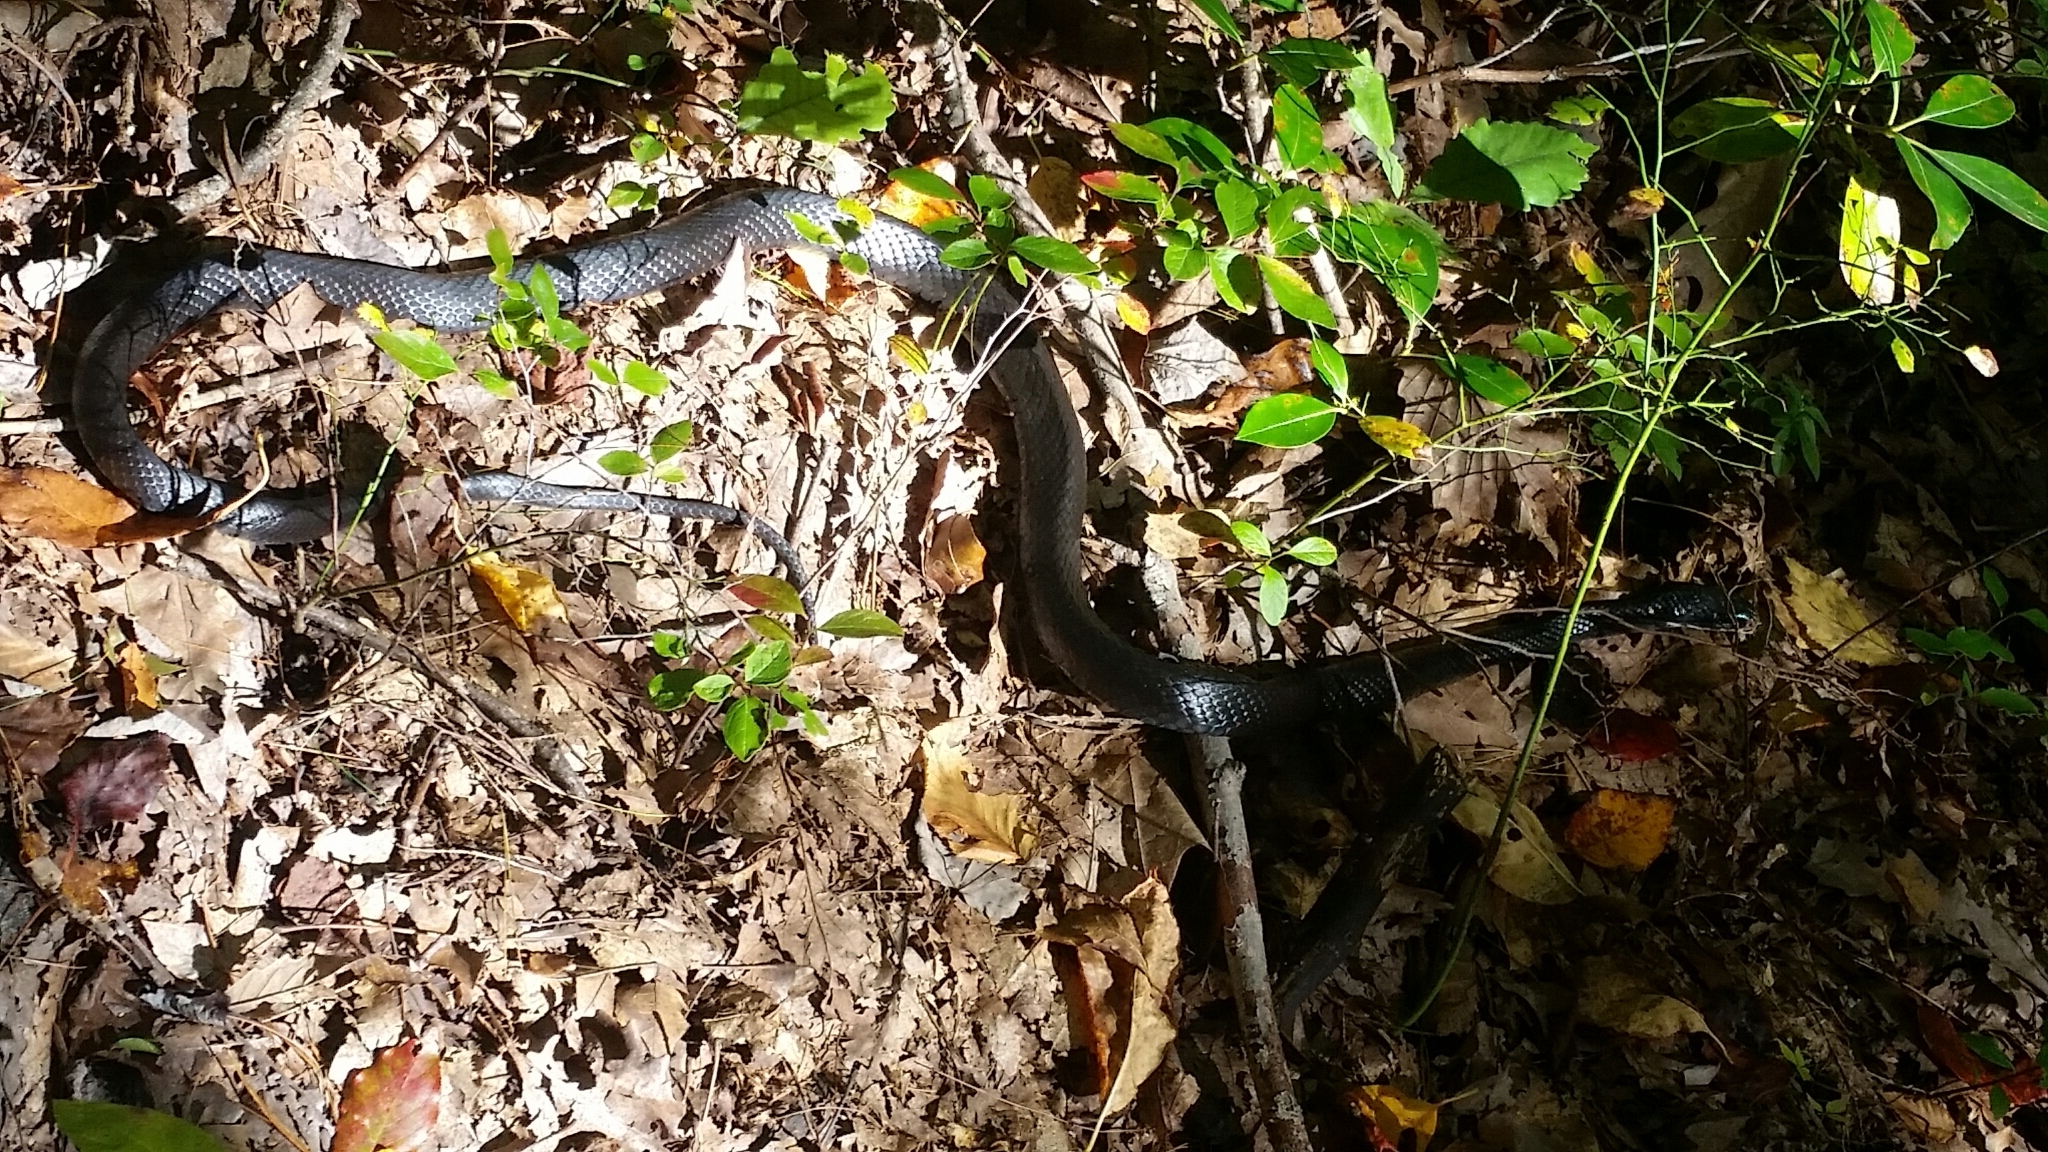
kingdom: Animalia
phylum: Chordata
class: Squamata
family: Colubridae
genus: Coluber
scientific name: Coluber constrictor
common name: Eastern racer
